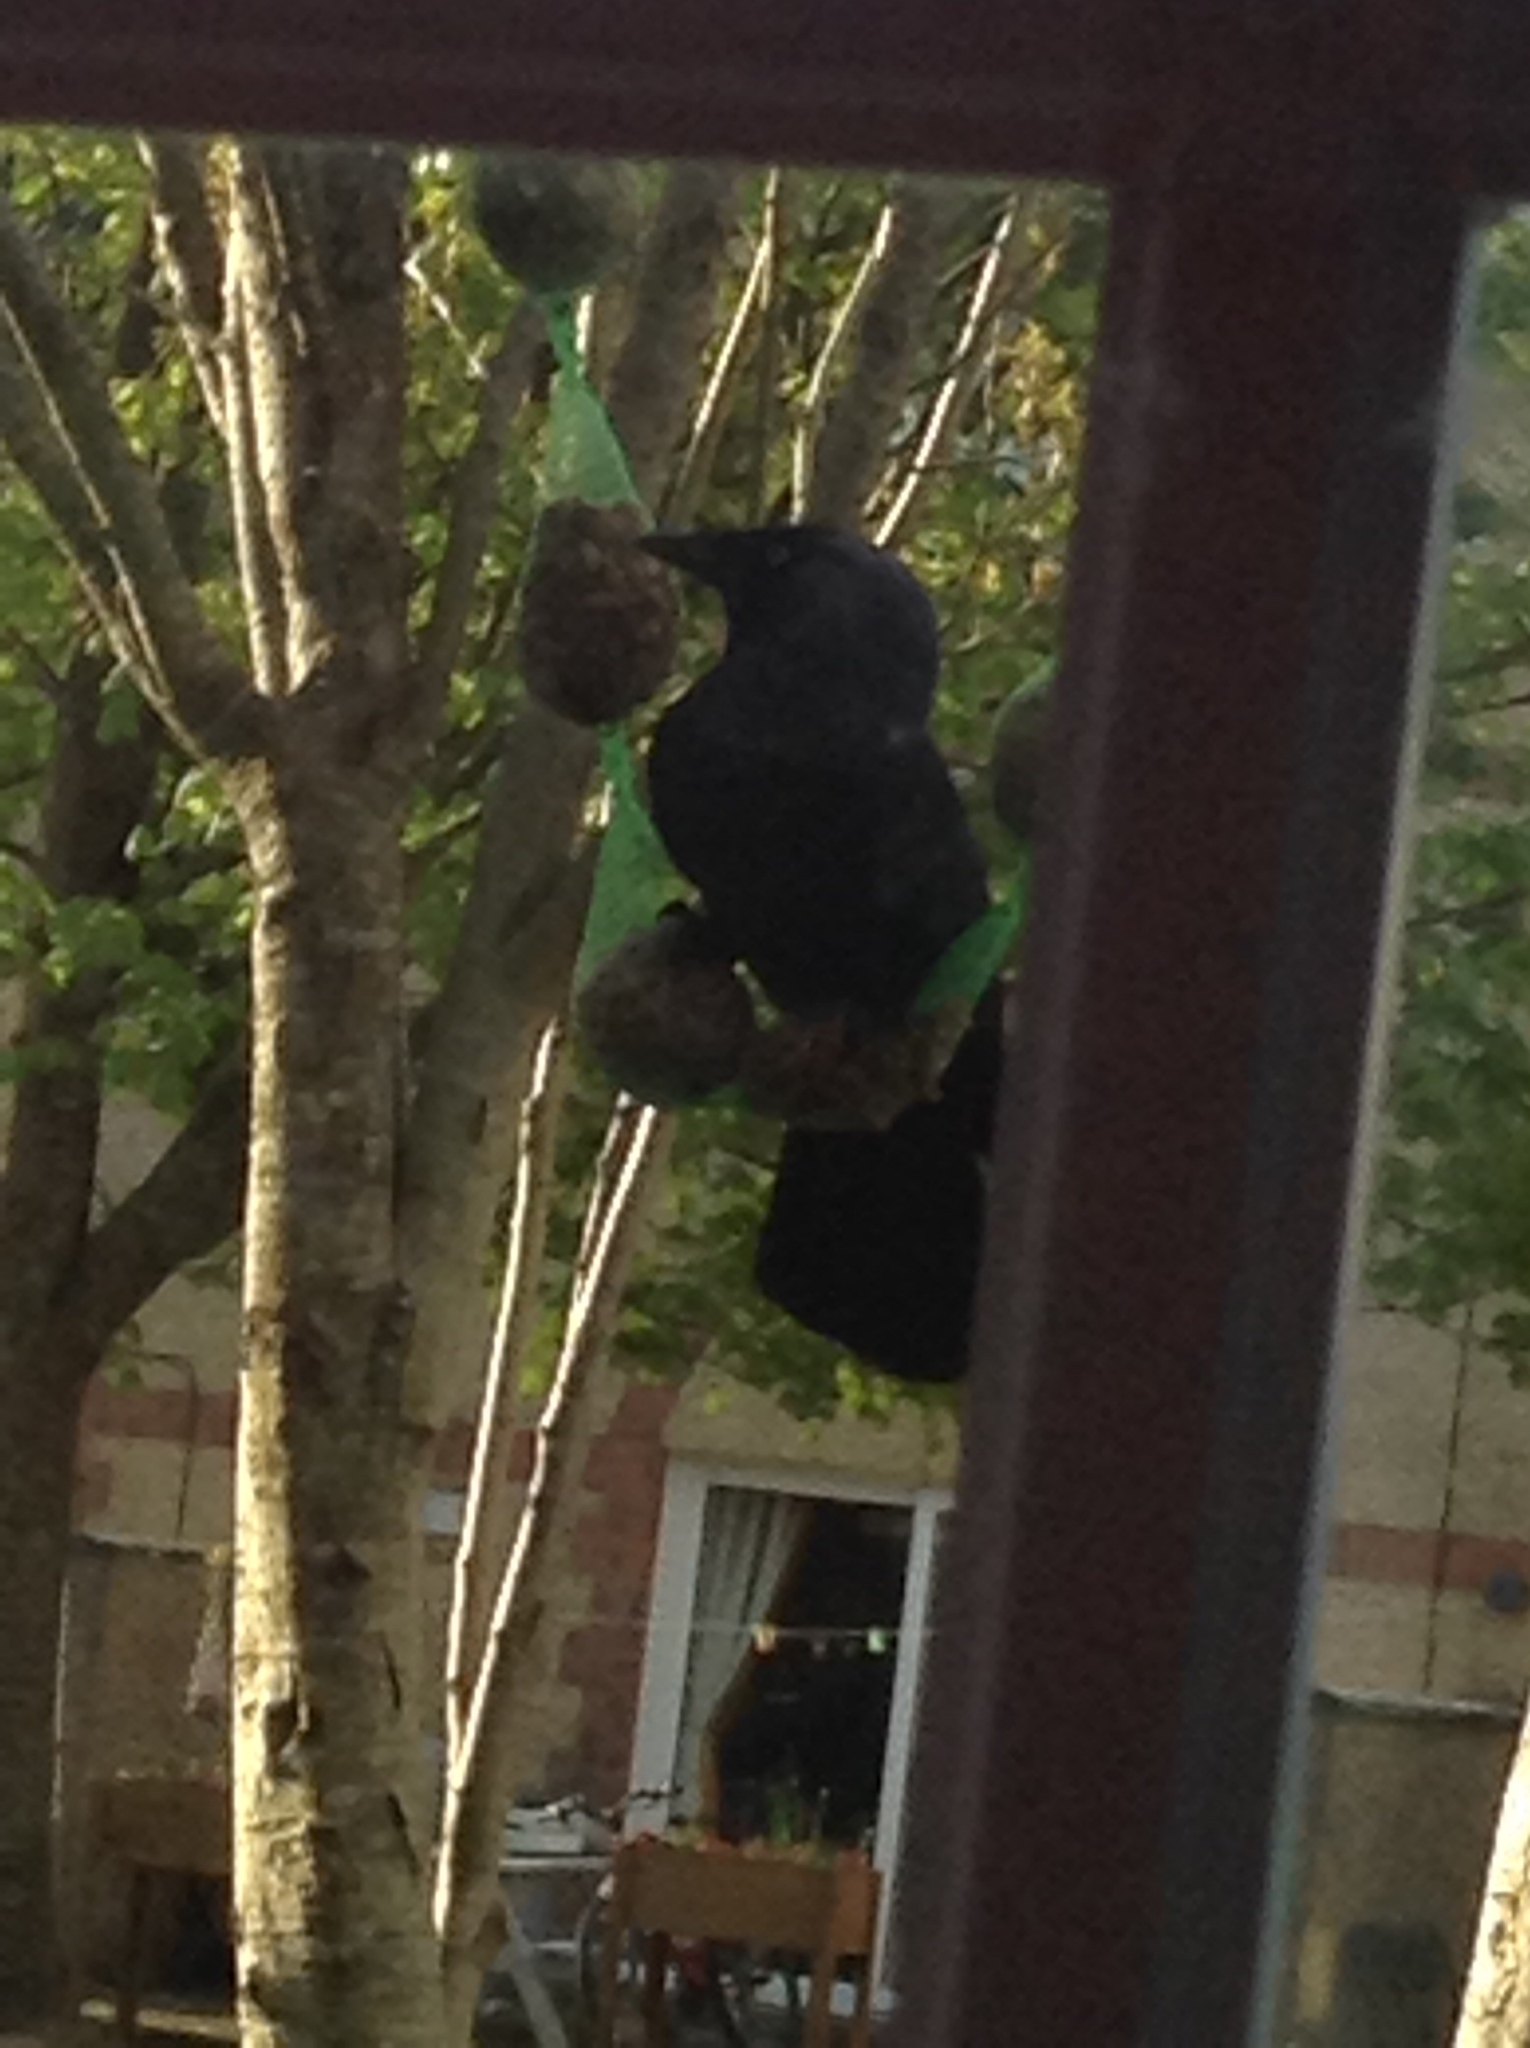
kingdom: Animalia
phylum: Chordata
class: Aves
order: Passeriformes
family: Corvidae
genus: Coloeus
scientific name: Coloeus monedula
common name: Western jackdaw
